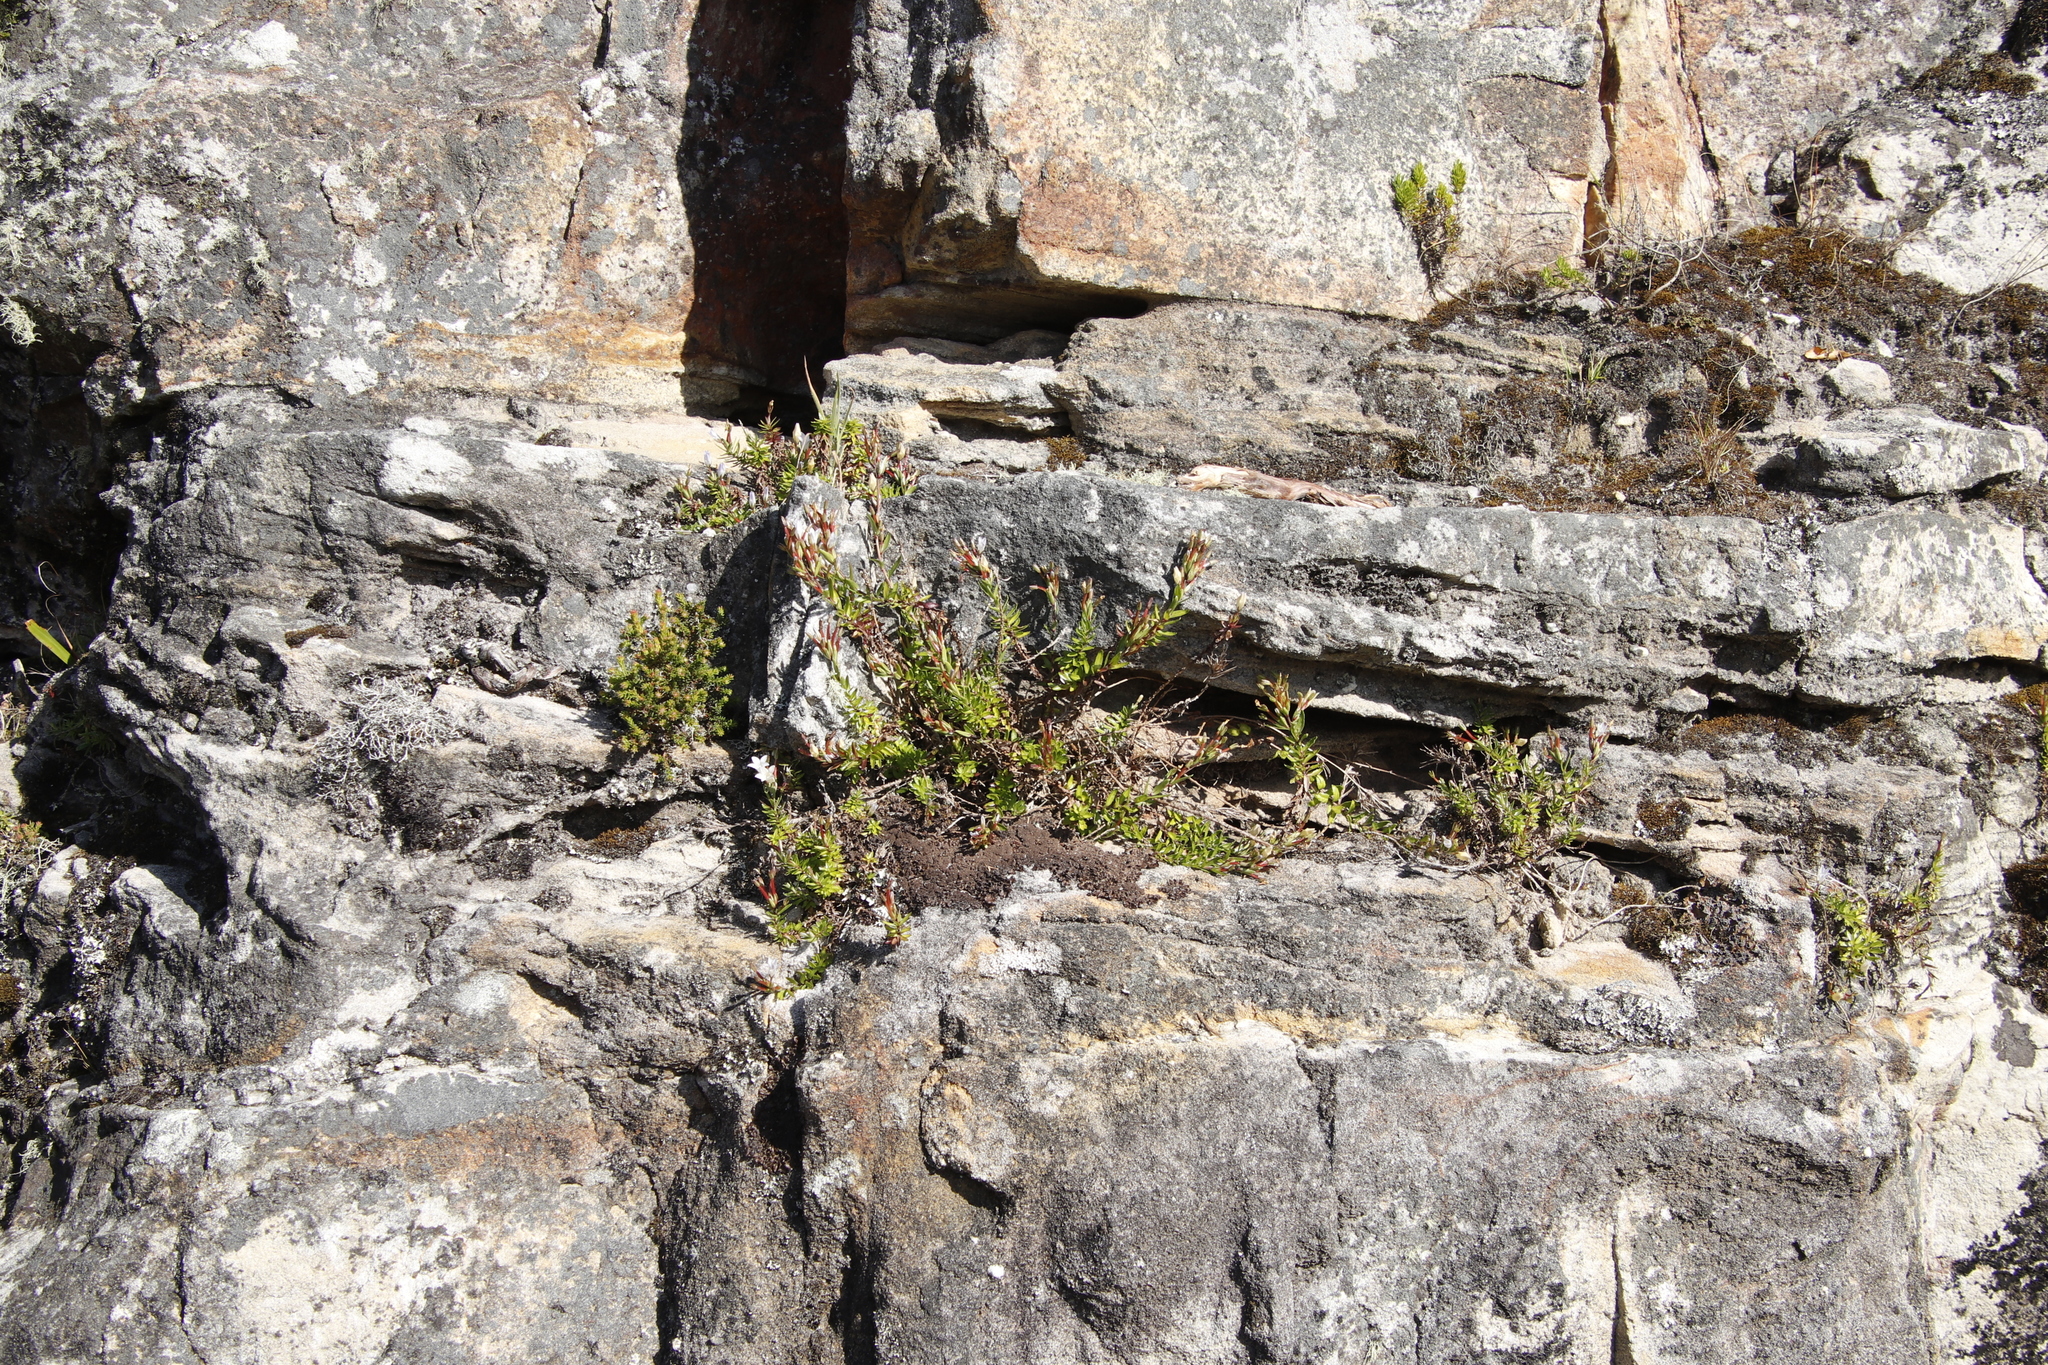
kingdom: Plantae
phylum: Tracheophyta
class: Magnoliopsida
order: Asterales
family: Campanulaceae
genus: Prismatocarpus
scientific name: Prismatocarpus nitidus
